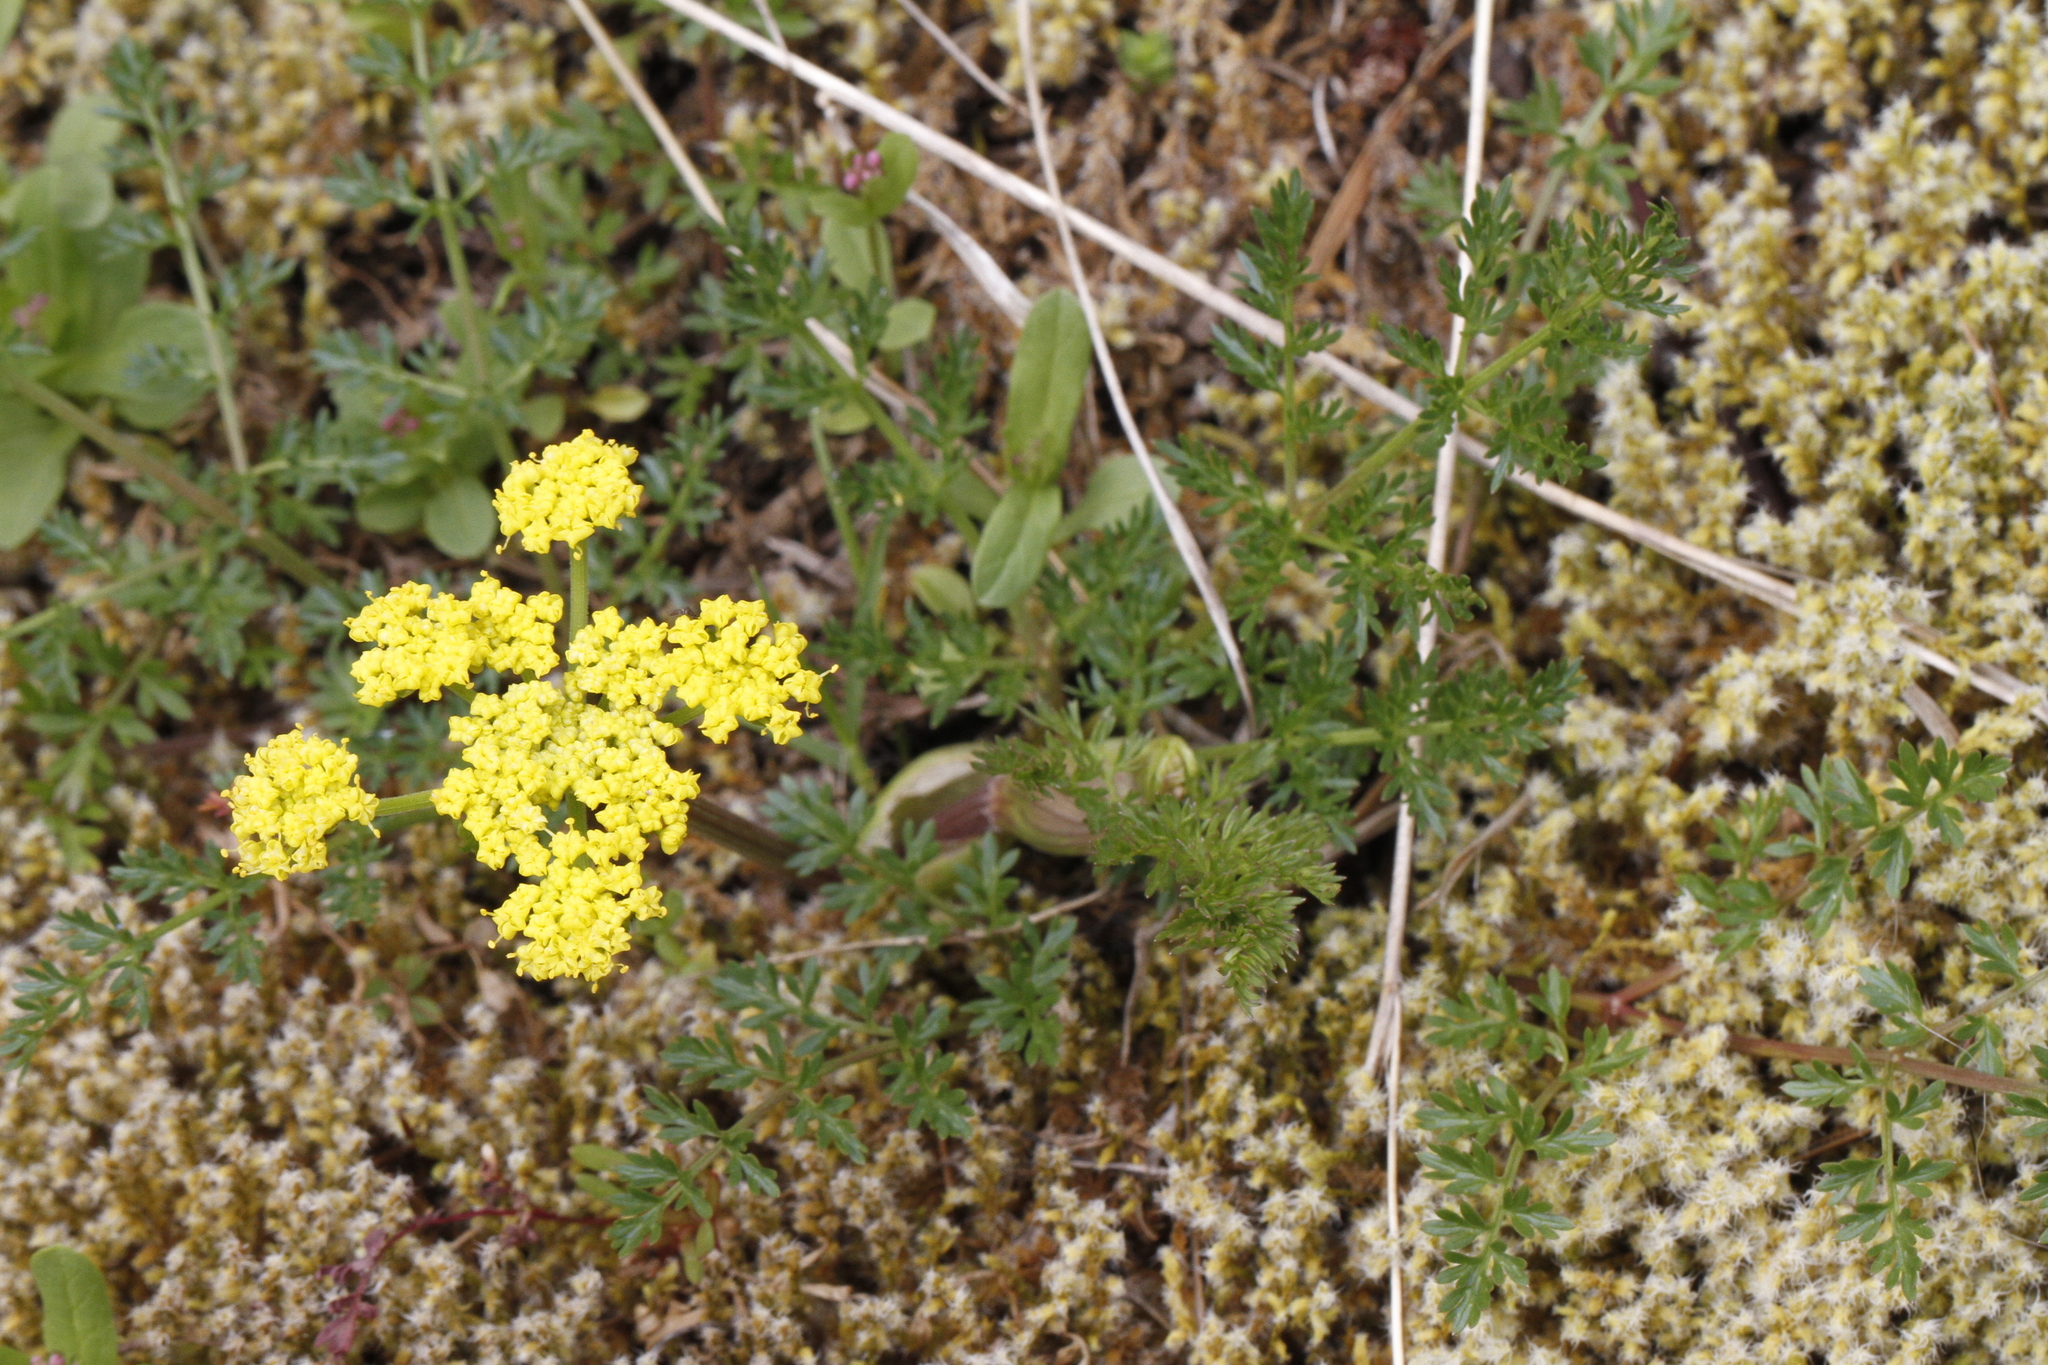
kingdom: Plantae
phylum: Tracheophyta
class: Magnoliopsida
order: Apiales
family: Apiaceae
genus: Lomatium
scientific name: Lomatium utriculatum
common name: Fine-leaf desert-parsley
